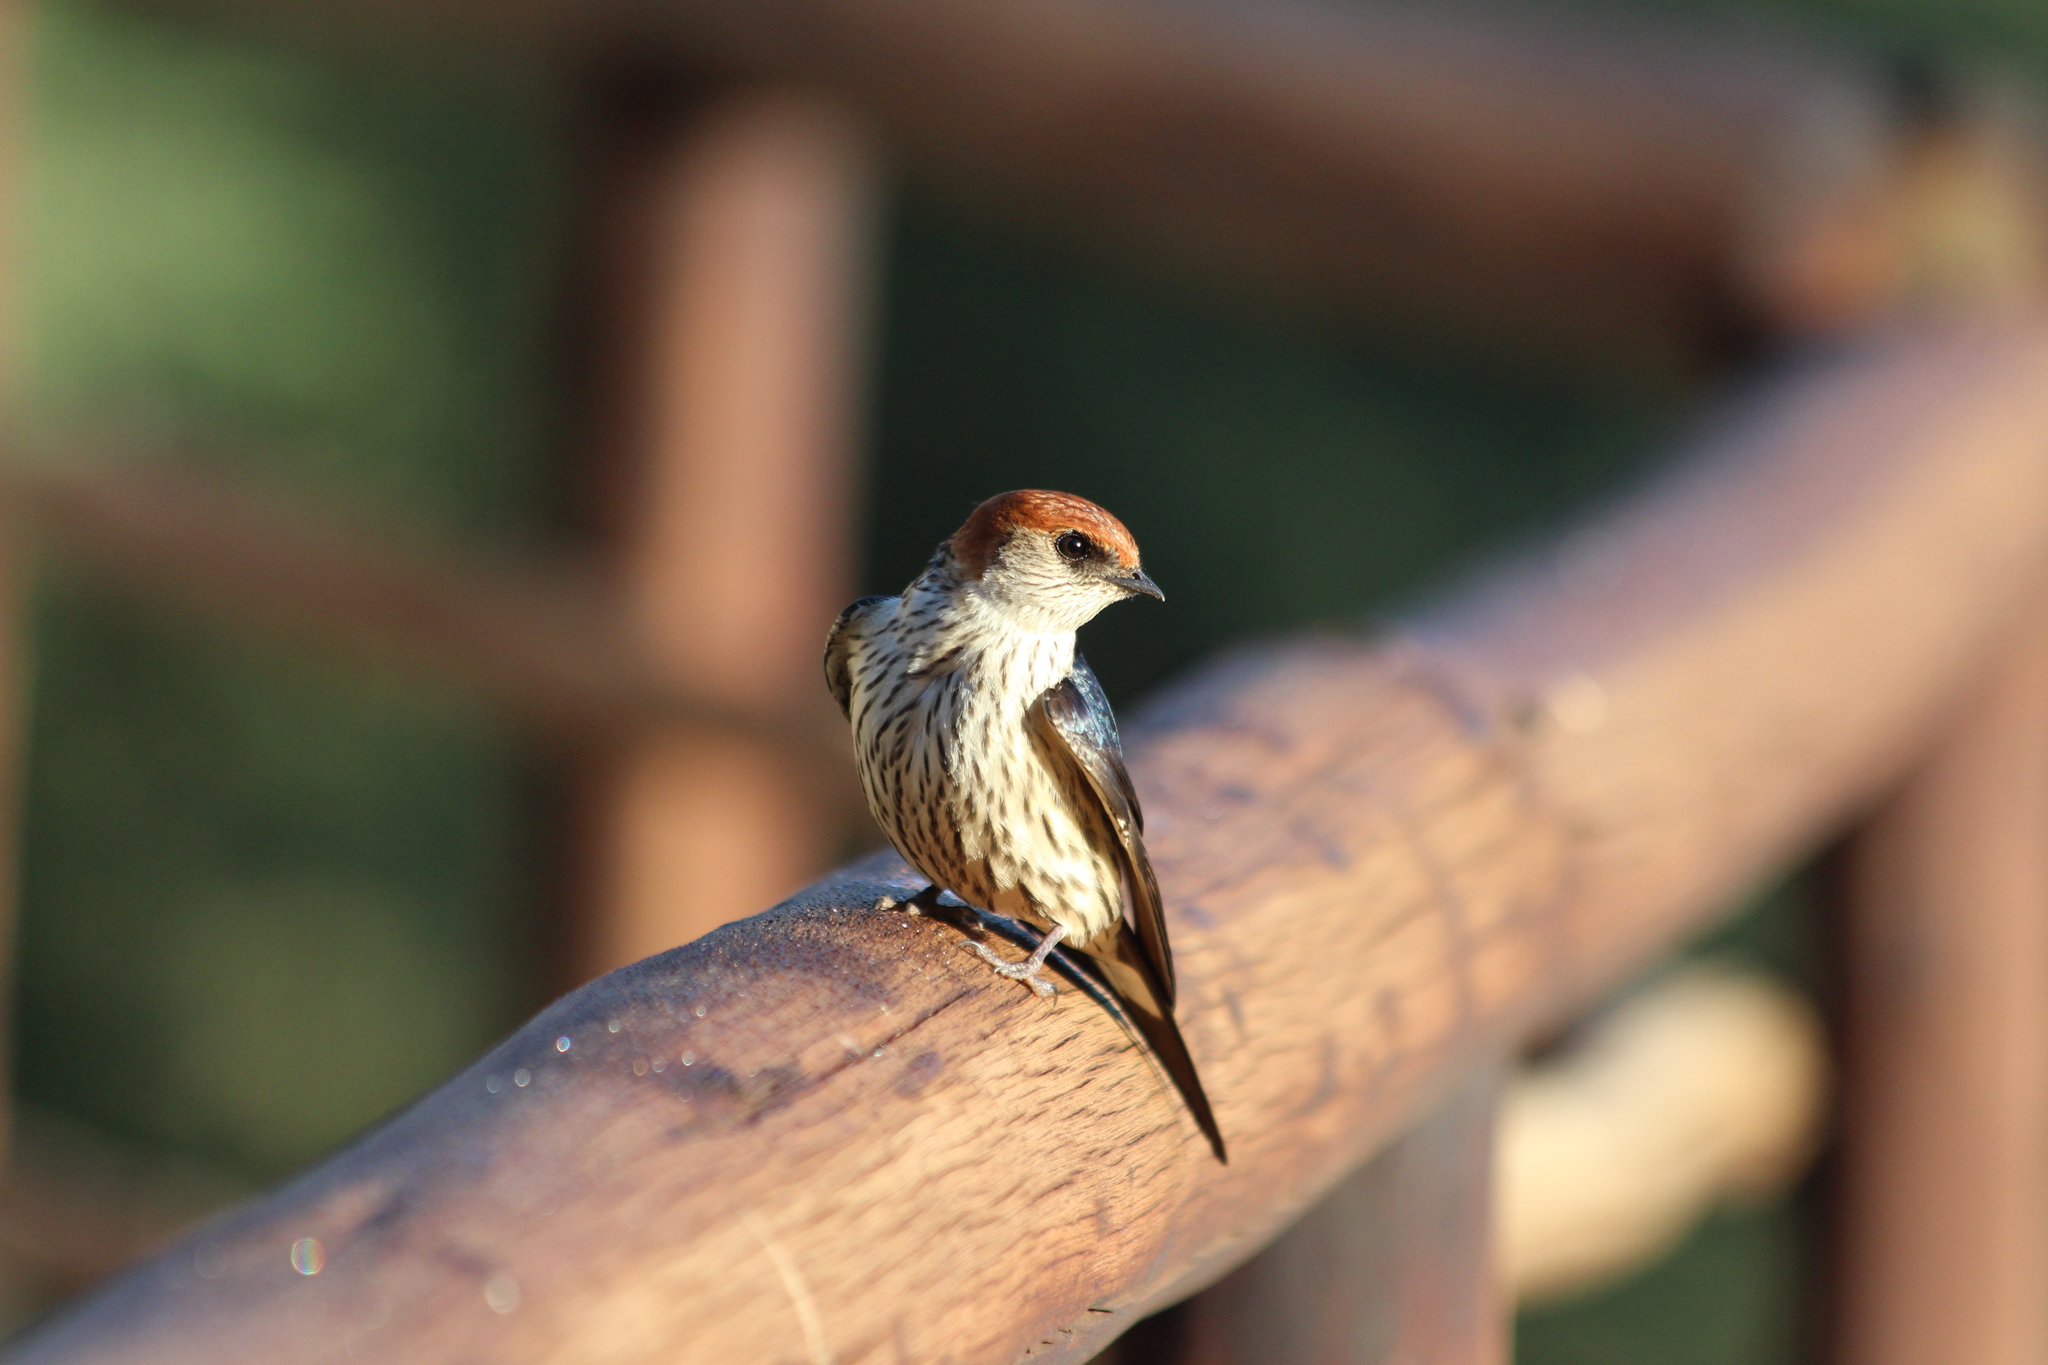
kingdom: Animalia
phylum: Chordata
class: Aves
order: Passeriformes
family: Hirundinidae
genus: Cecropis
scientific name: Cecropis cucullata
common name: Greater striped-swallow
